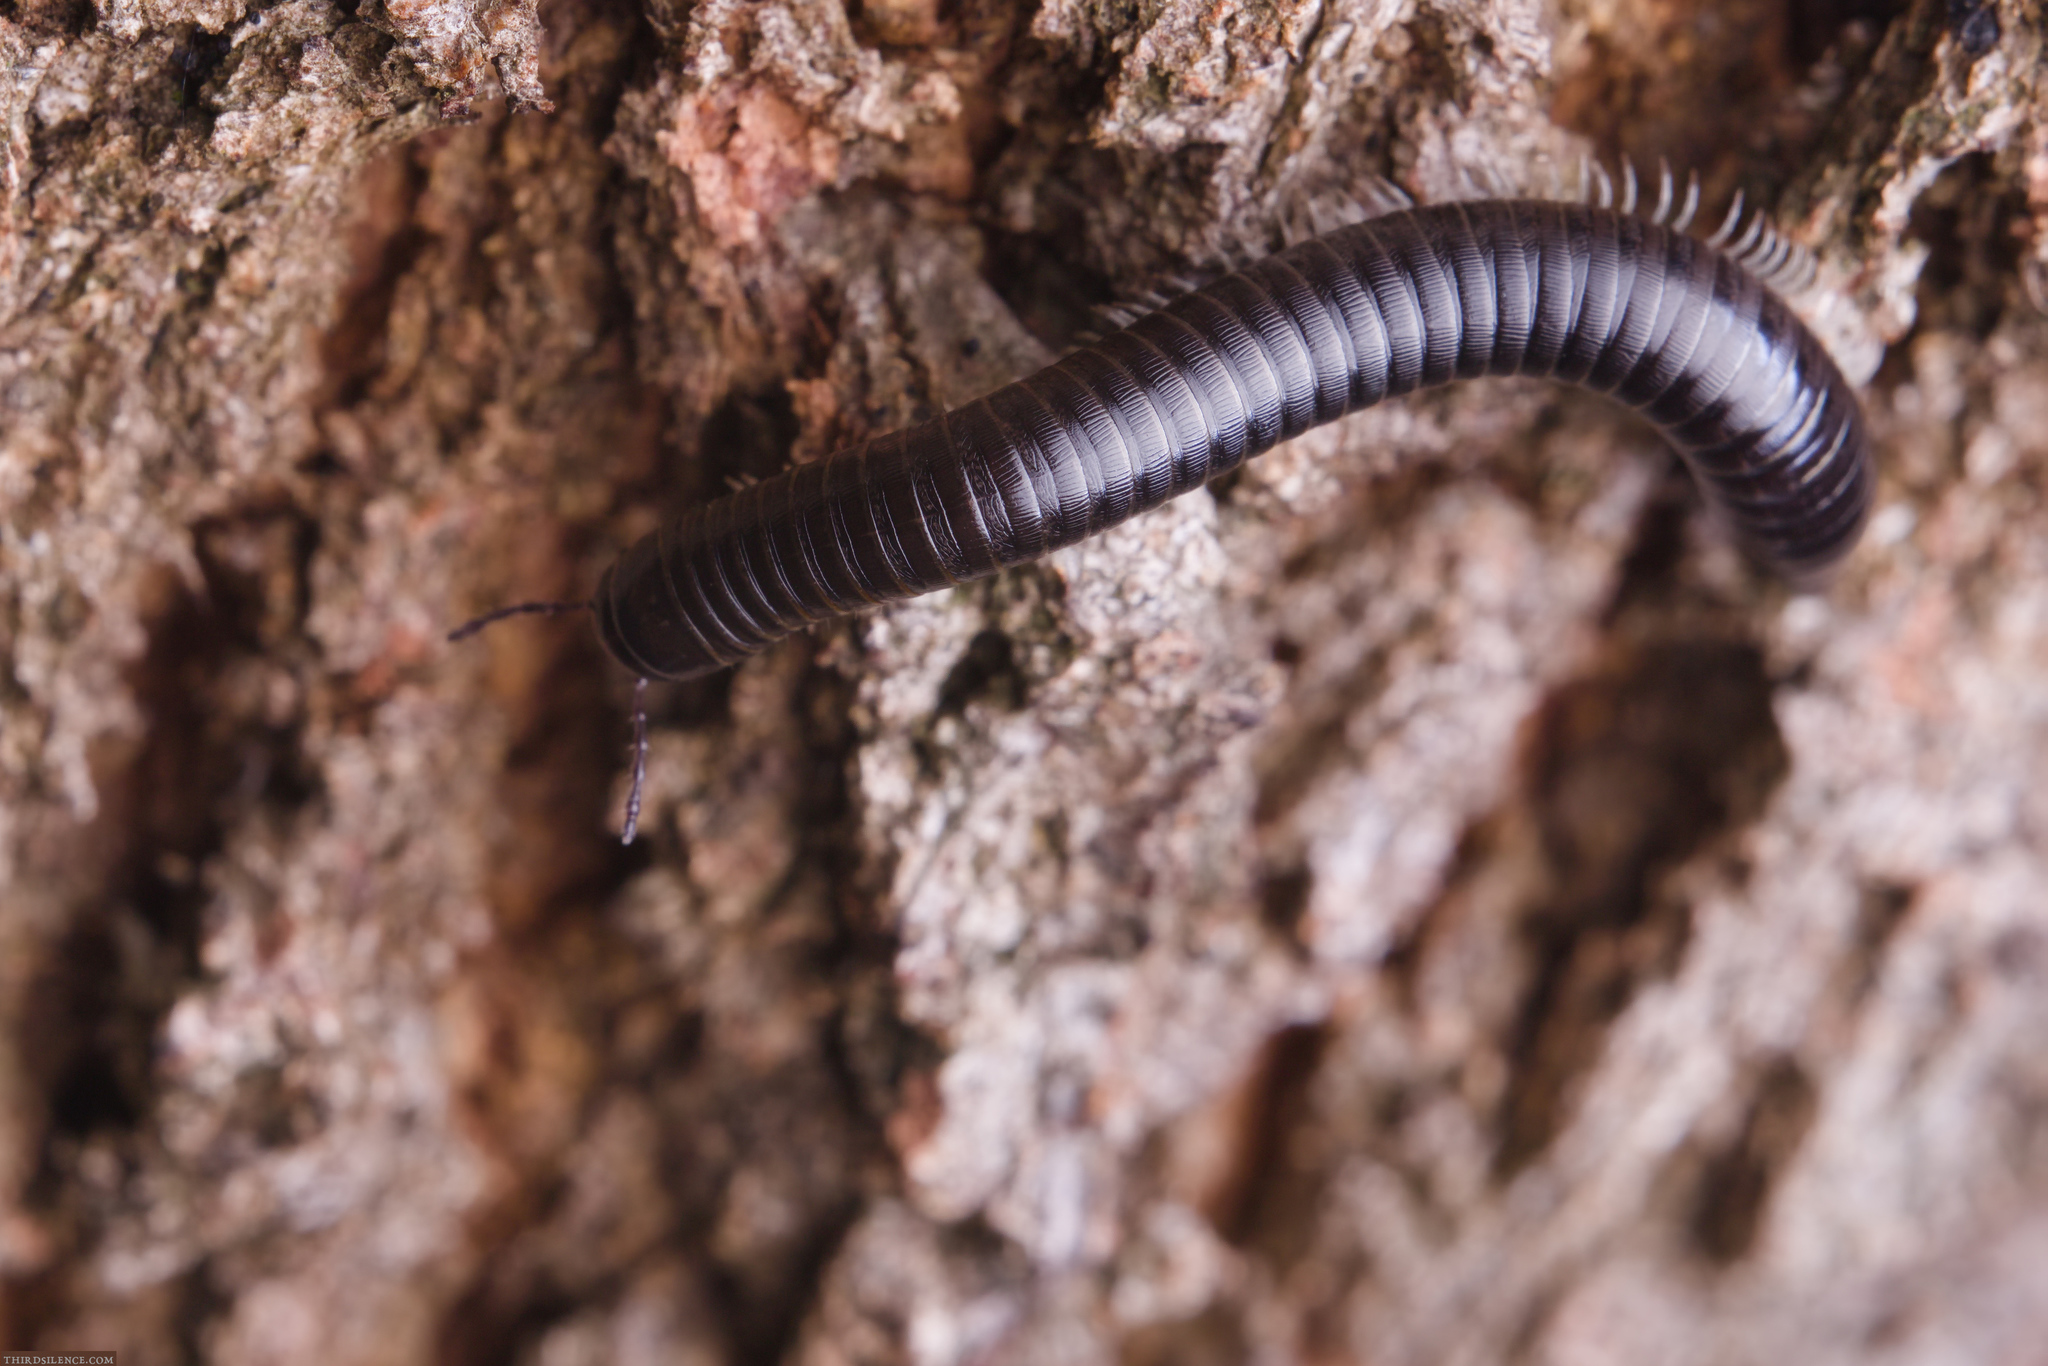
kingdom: Animalia
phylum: Arthropoda
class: Diplopoda
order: Julida
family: Julidae
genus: Ommatoiulus
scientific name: Ommatoiulus moreleti
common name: Portuguese millipede
